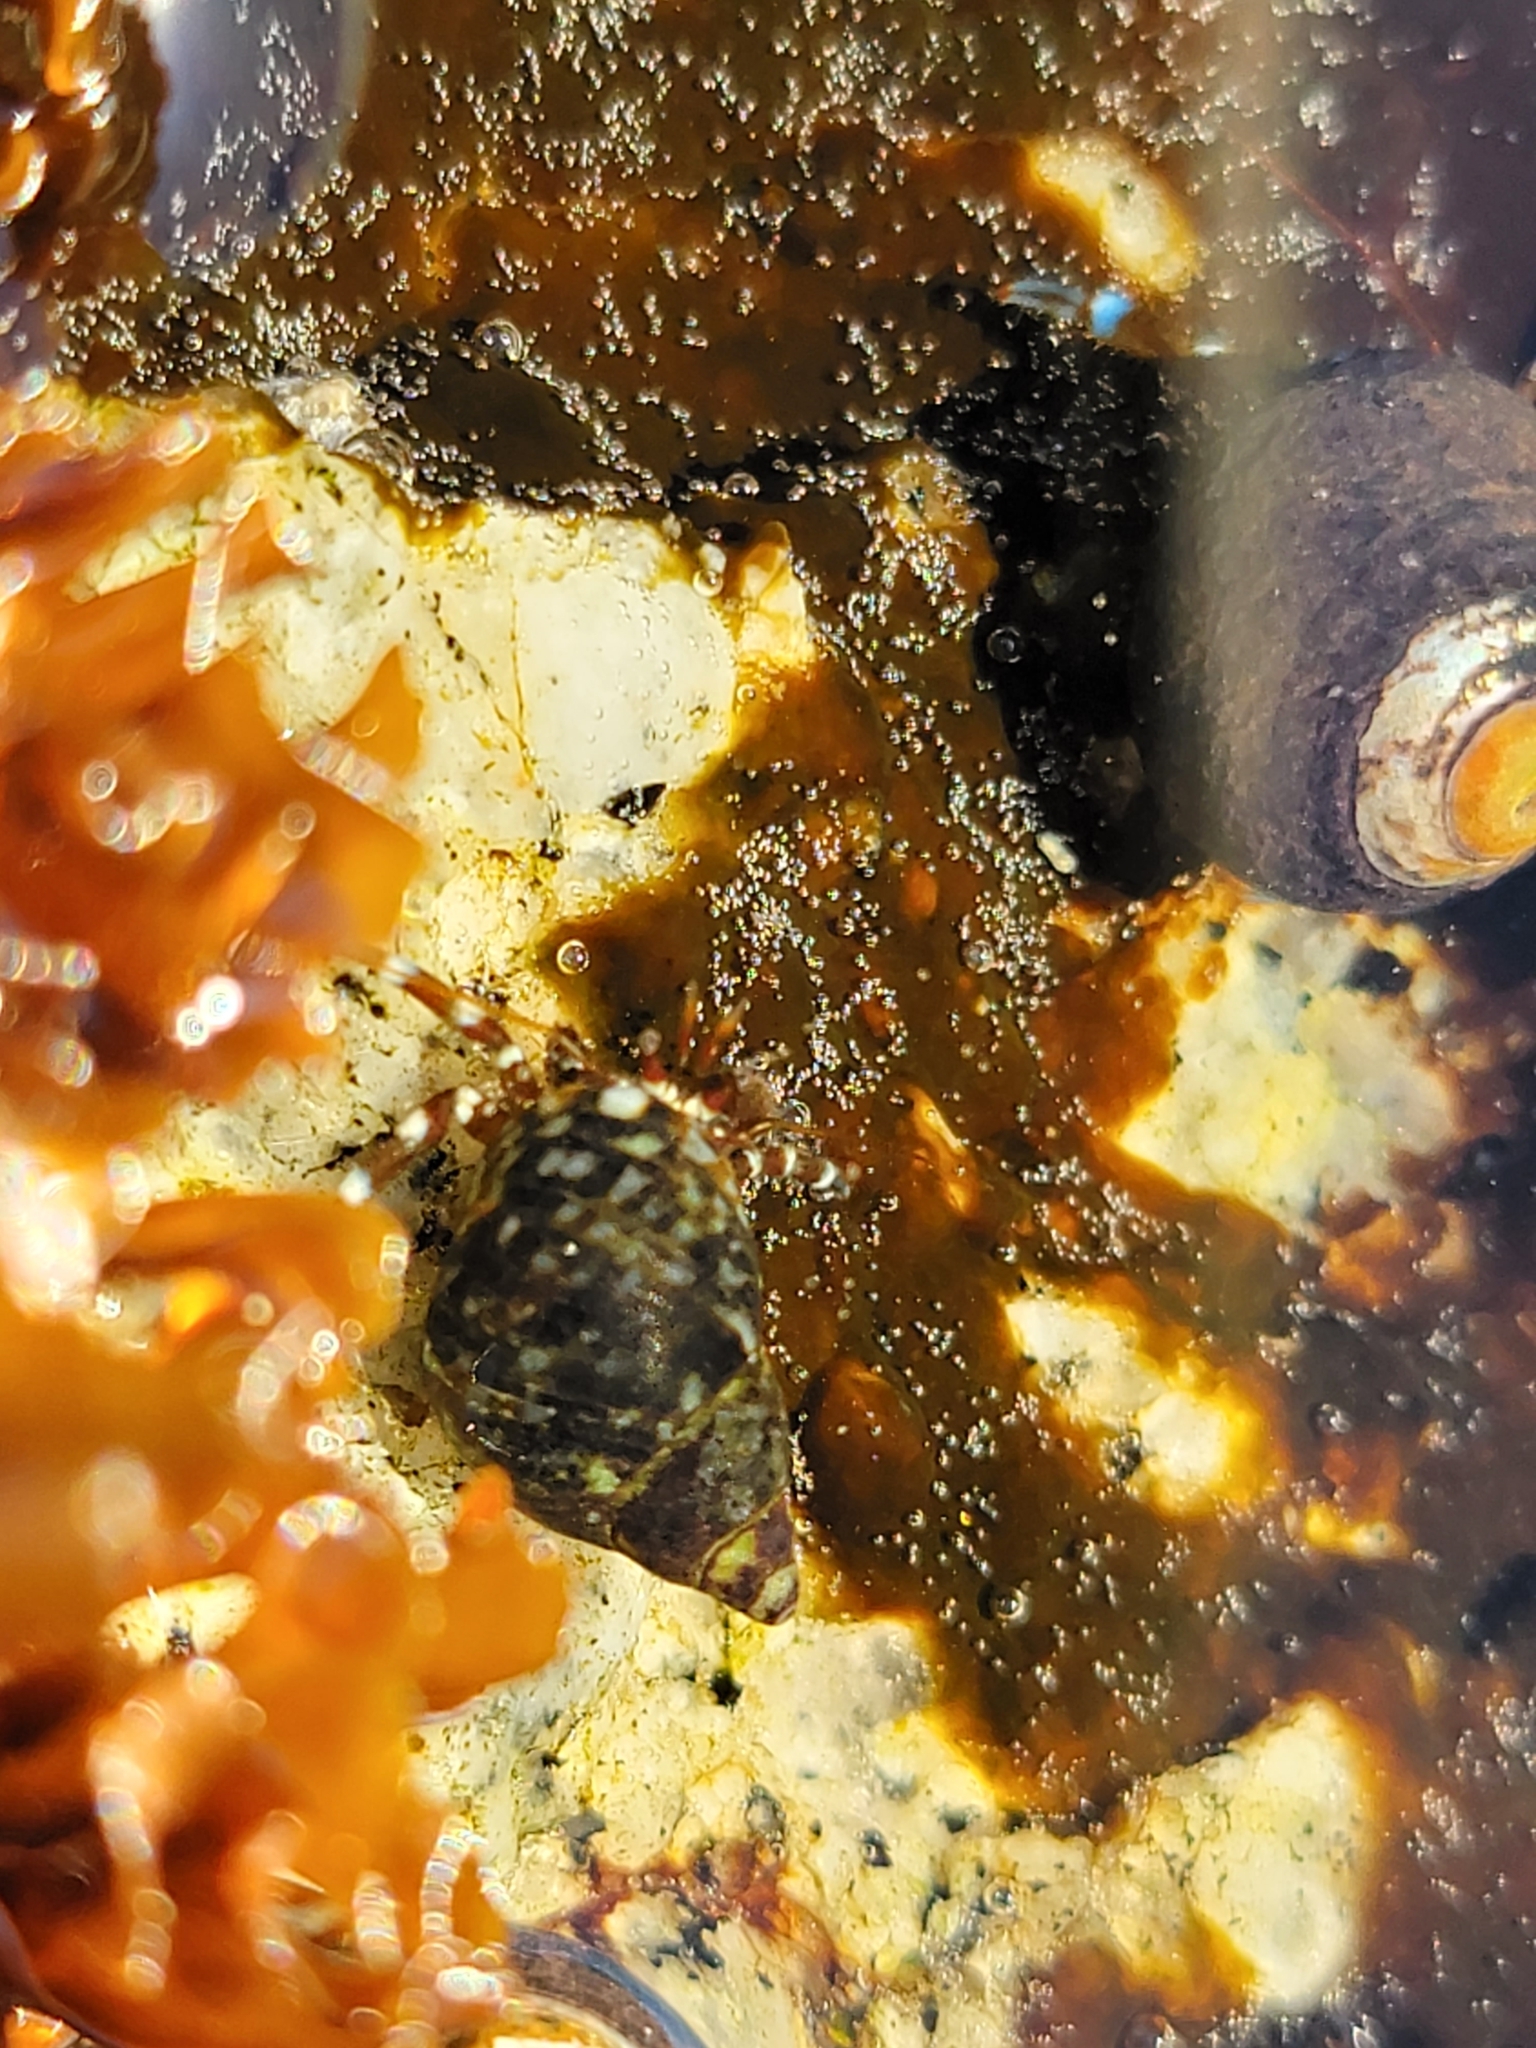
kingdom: Animalia
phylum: Arthropoda
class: Malacostraca
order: Decapoda
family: Paguridae
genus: Pagurus
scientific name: Pagurus samuelis
